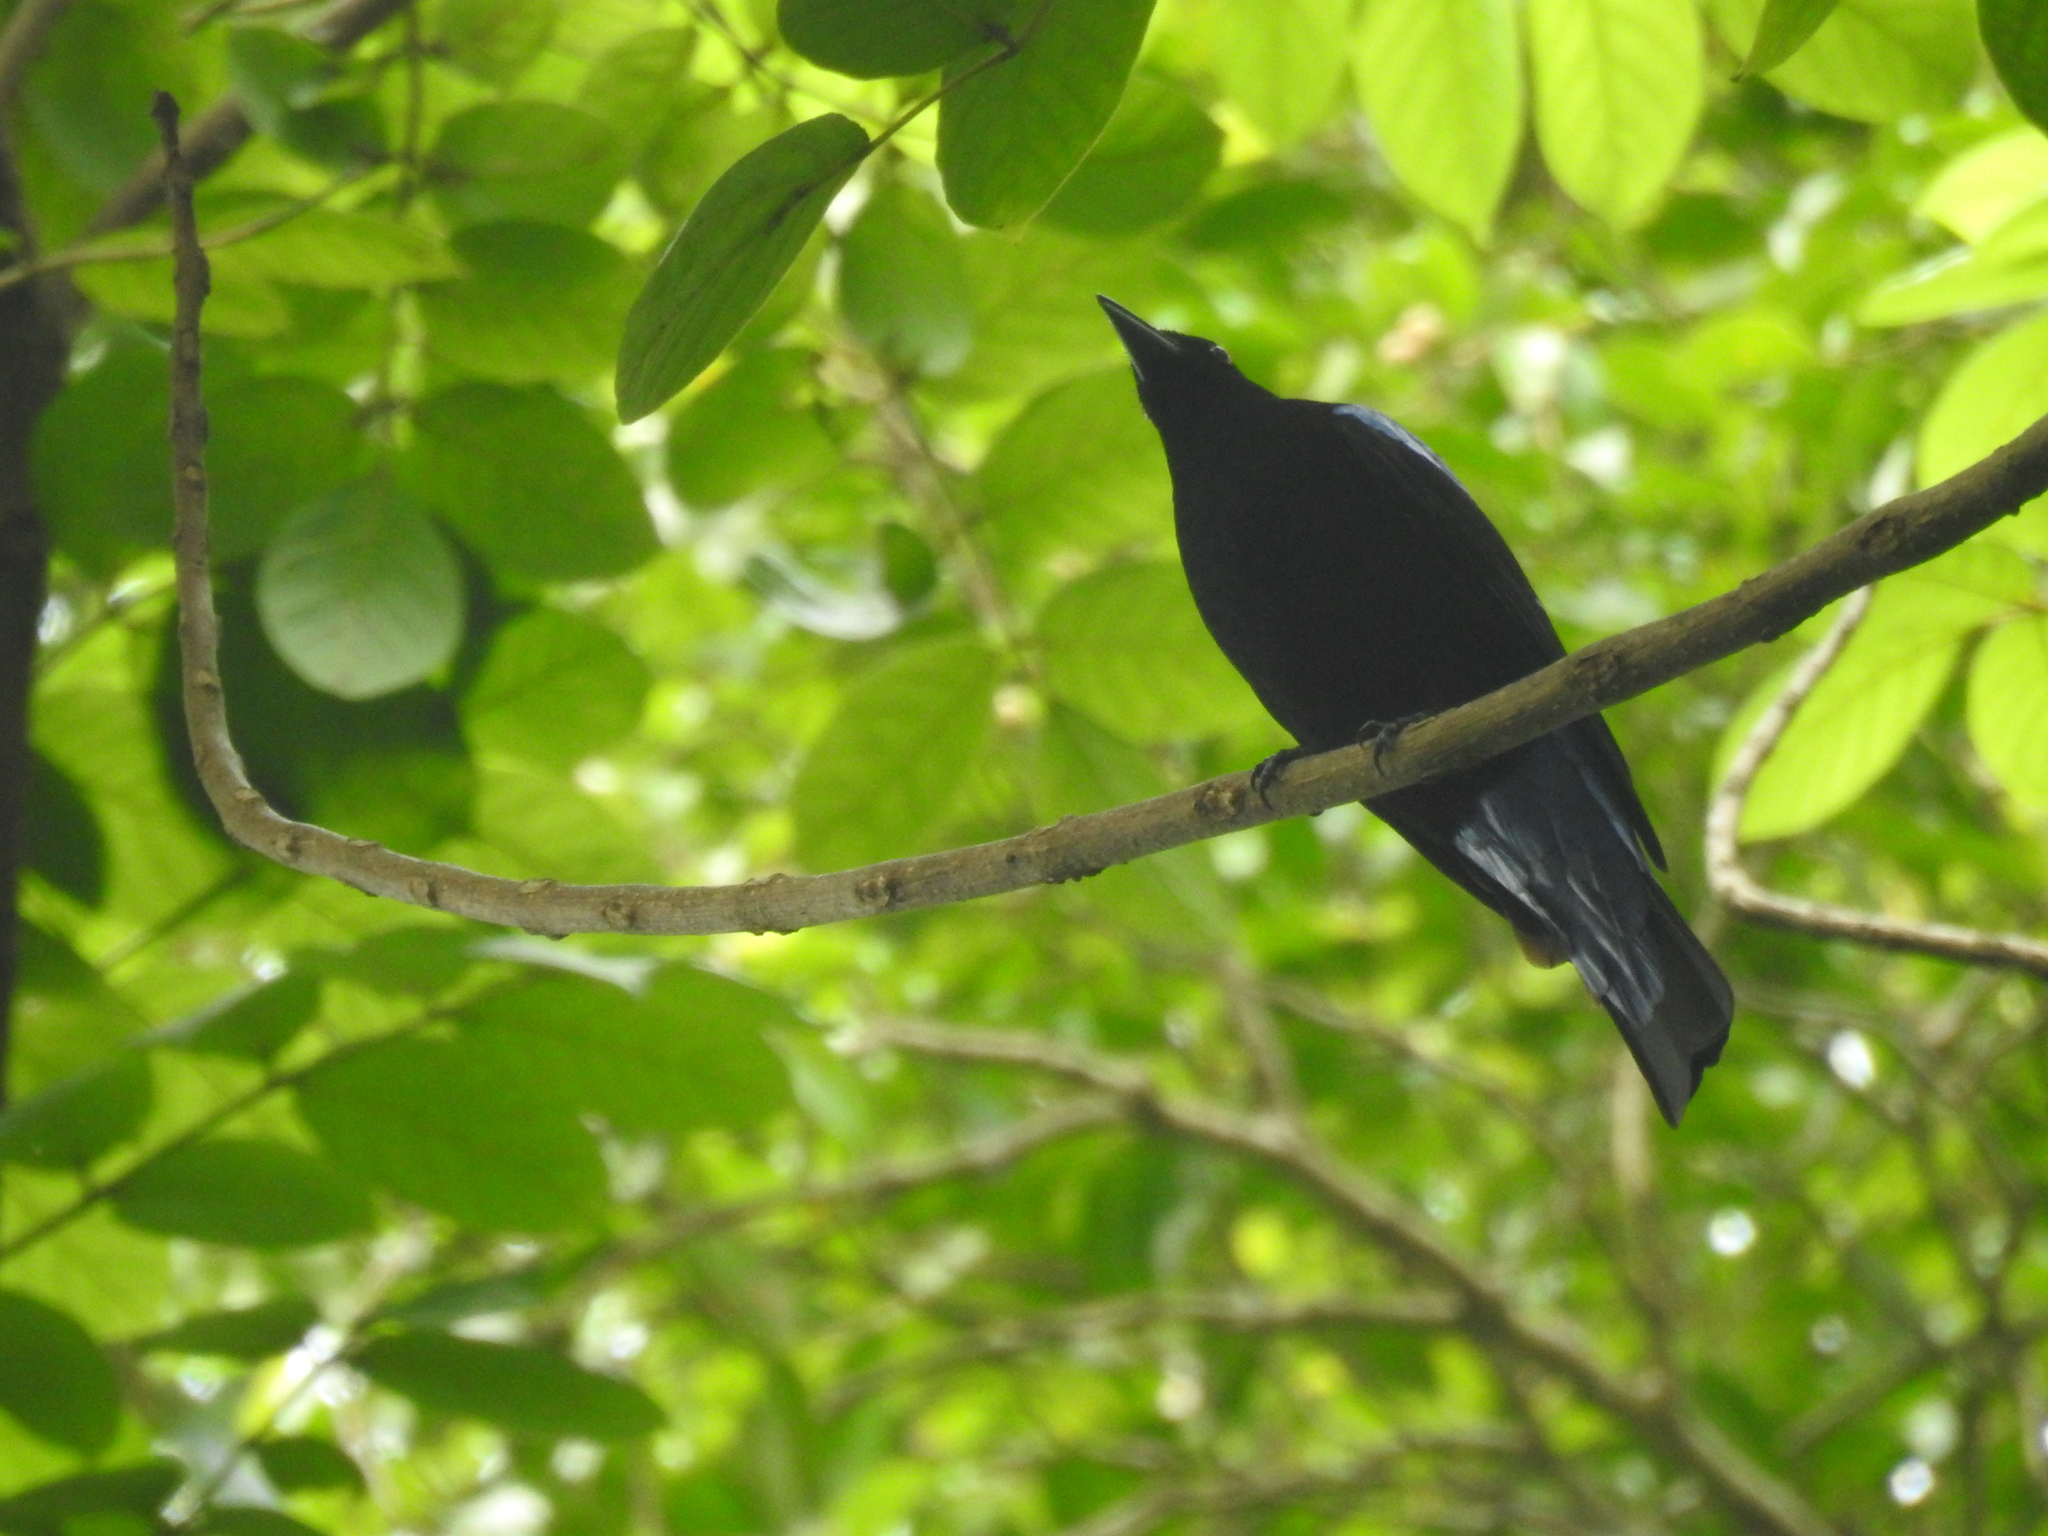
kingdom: Animalia
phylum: Chordata
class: Aves
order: Passeriformes
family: Irenidae
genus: Irena
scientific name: Irena puella
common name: Asian fairy-bluebird
